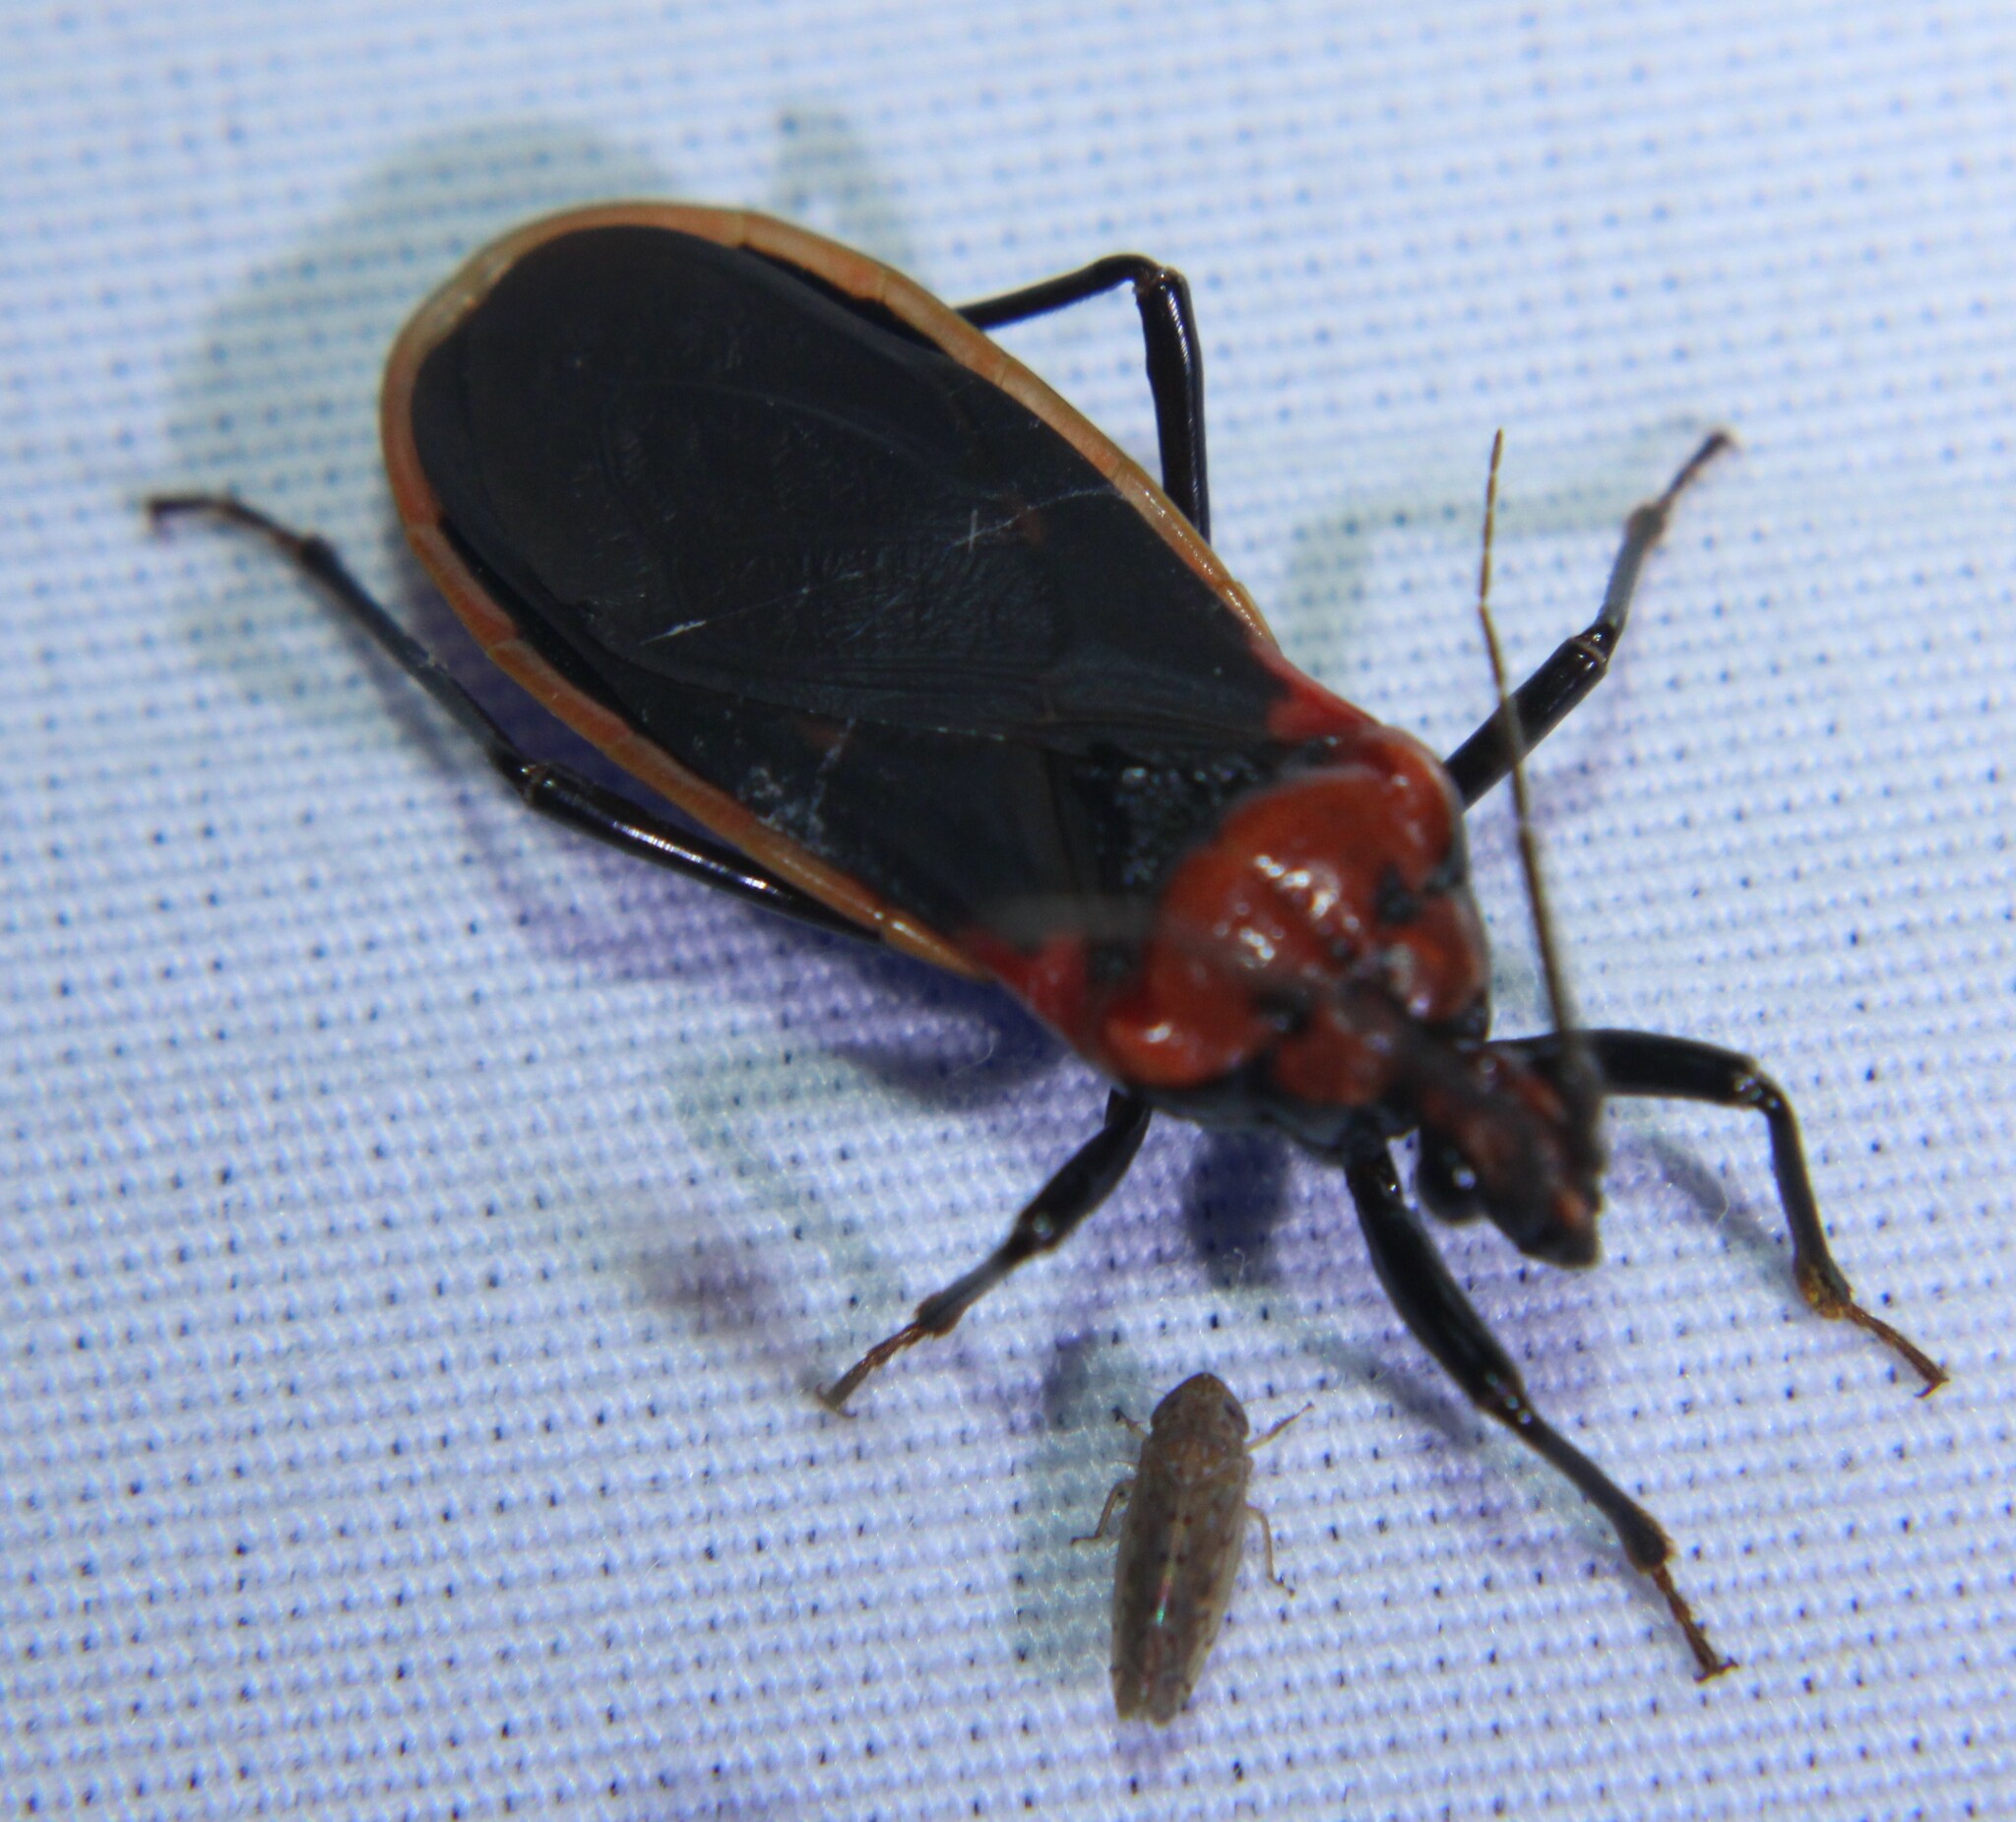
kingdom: Animalia
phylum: Arthropoda
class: Insecta
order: Hemiptera
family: Reduviidae
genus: Rhiginia
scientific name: Rhiginia cinctiventris
